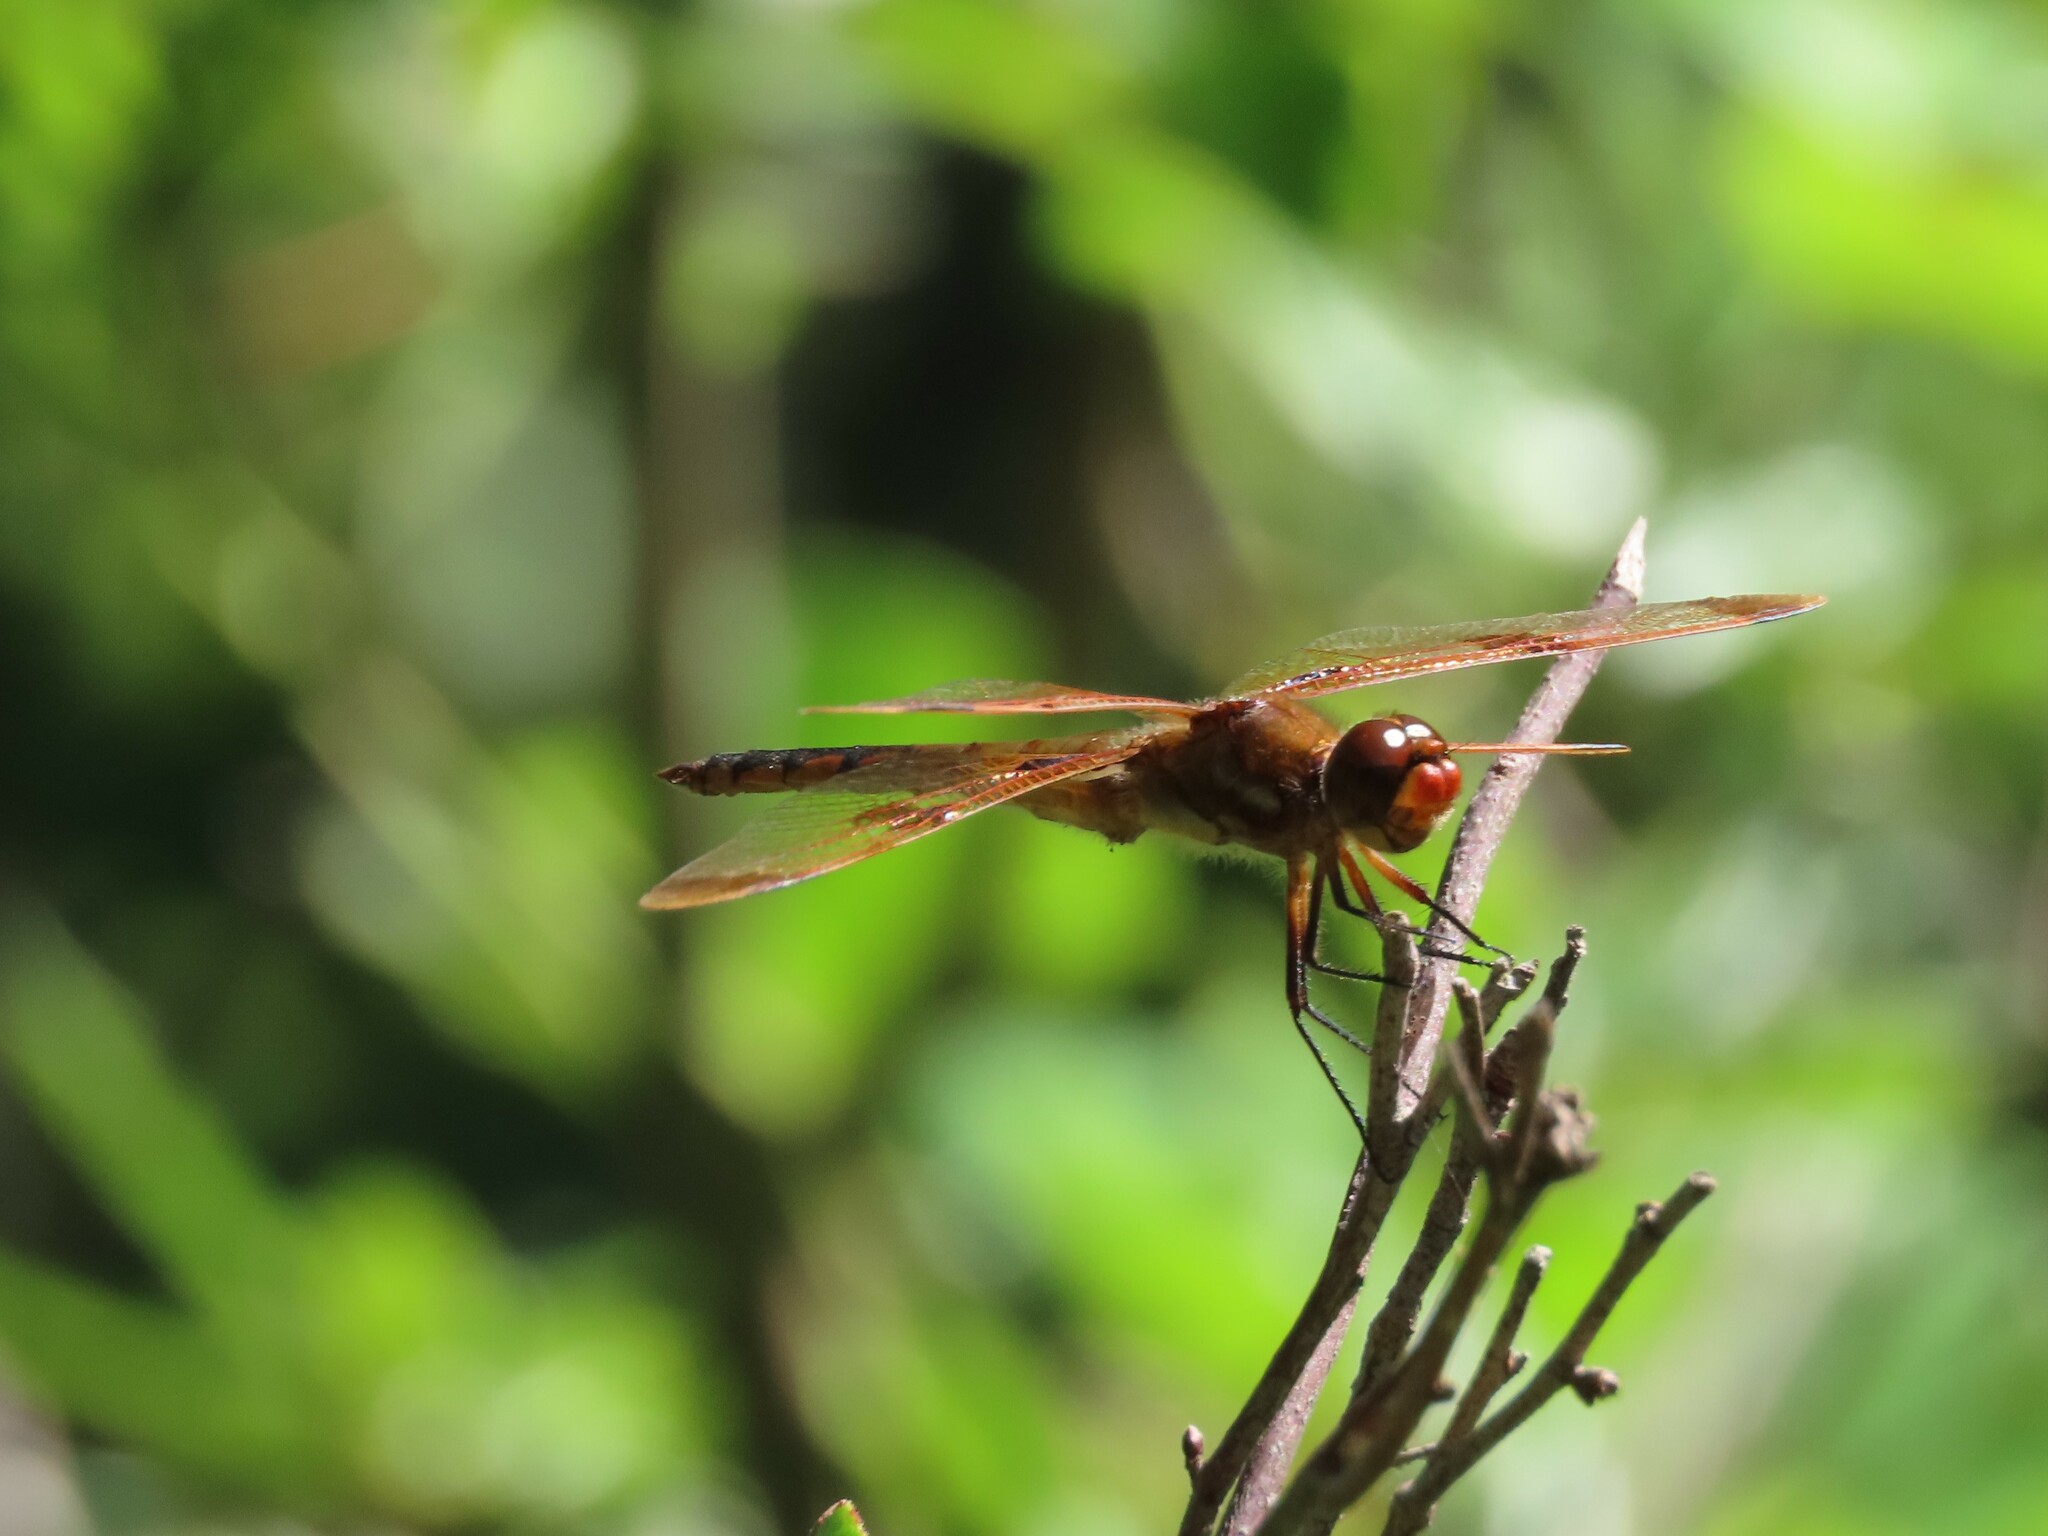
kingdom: Animalia
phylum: Arthropoda
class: Insecta
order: Odonata
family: Libellulidae
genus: Libellula
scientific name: Libellula semifasciata
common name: Painted skimmer
